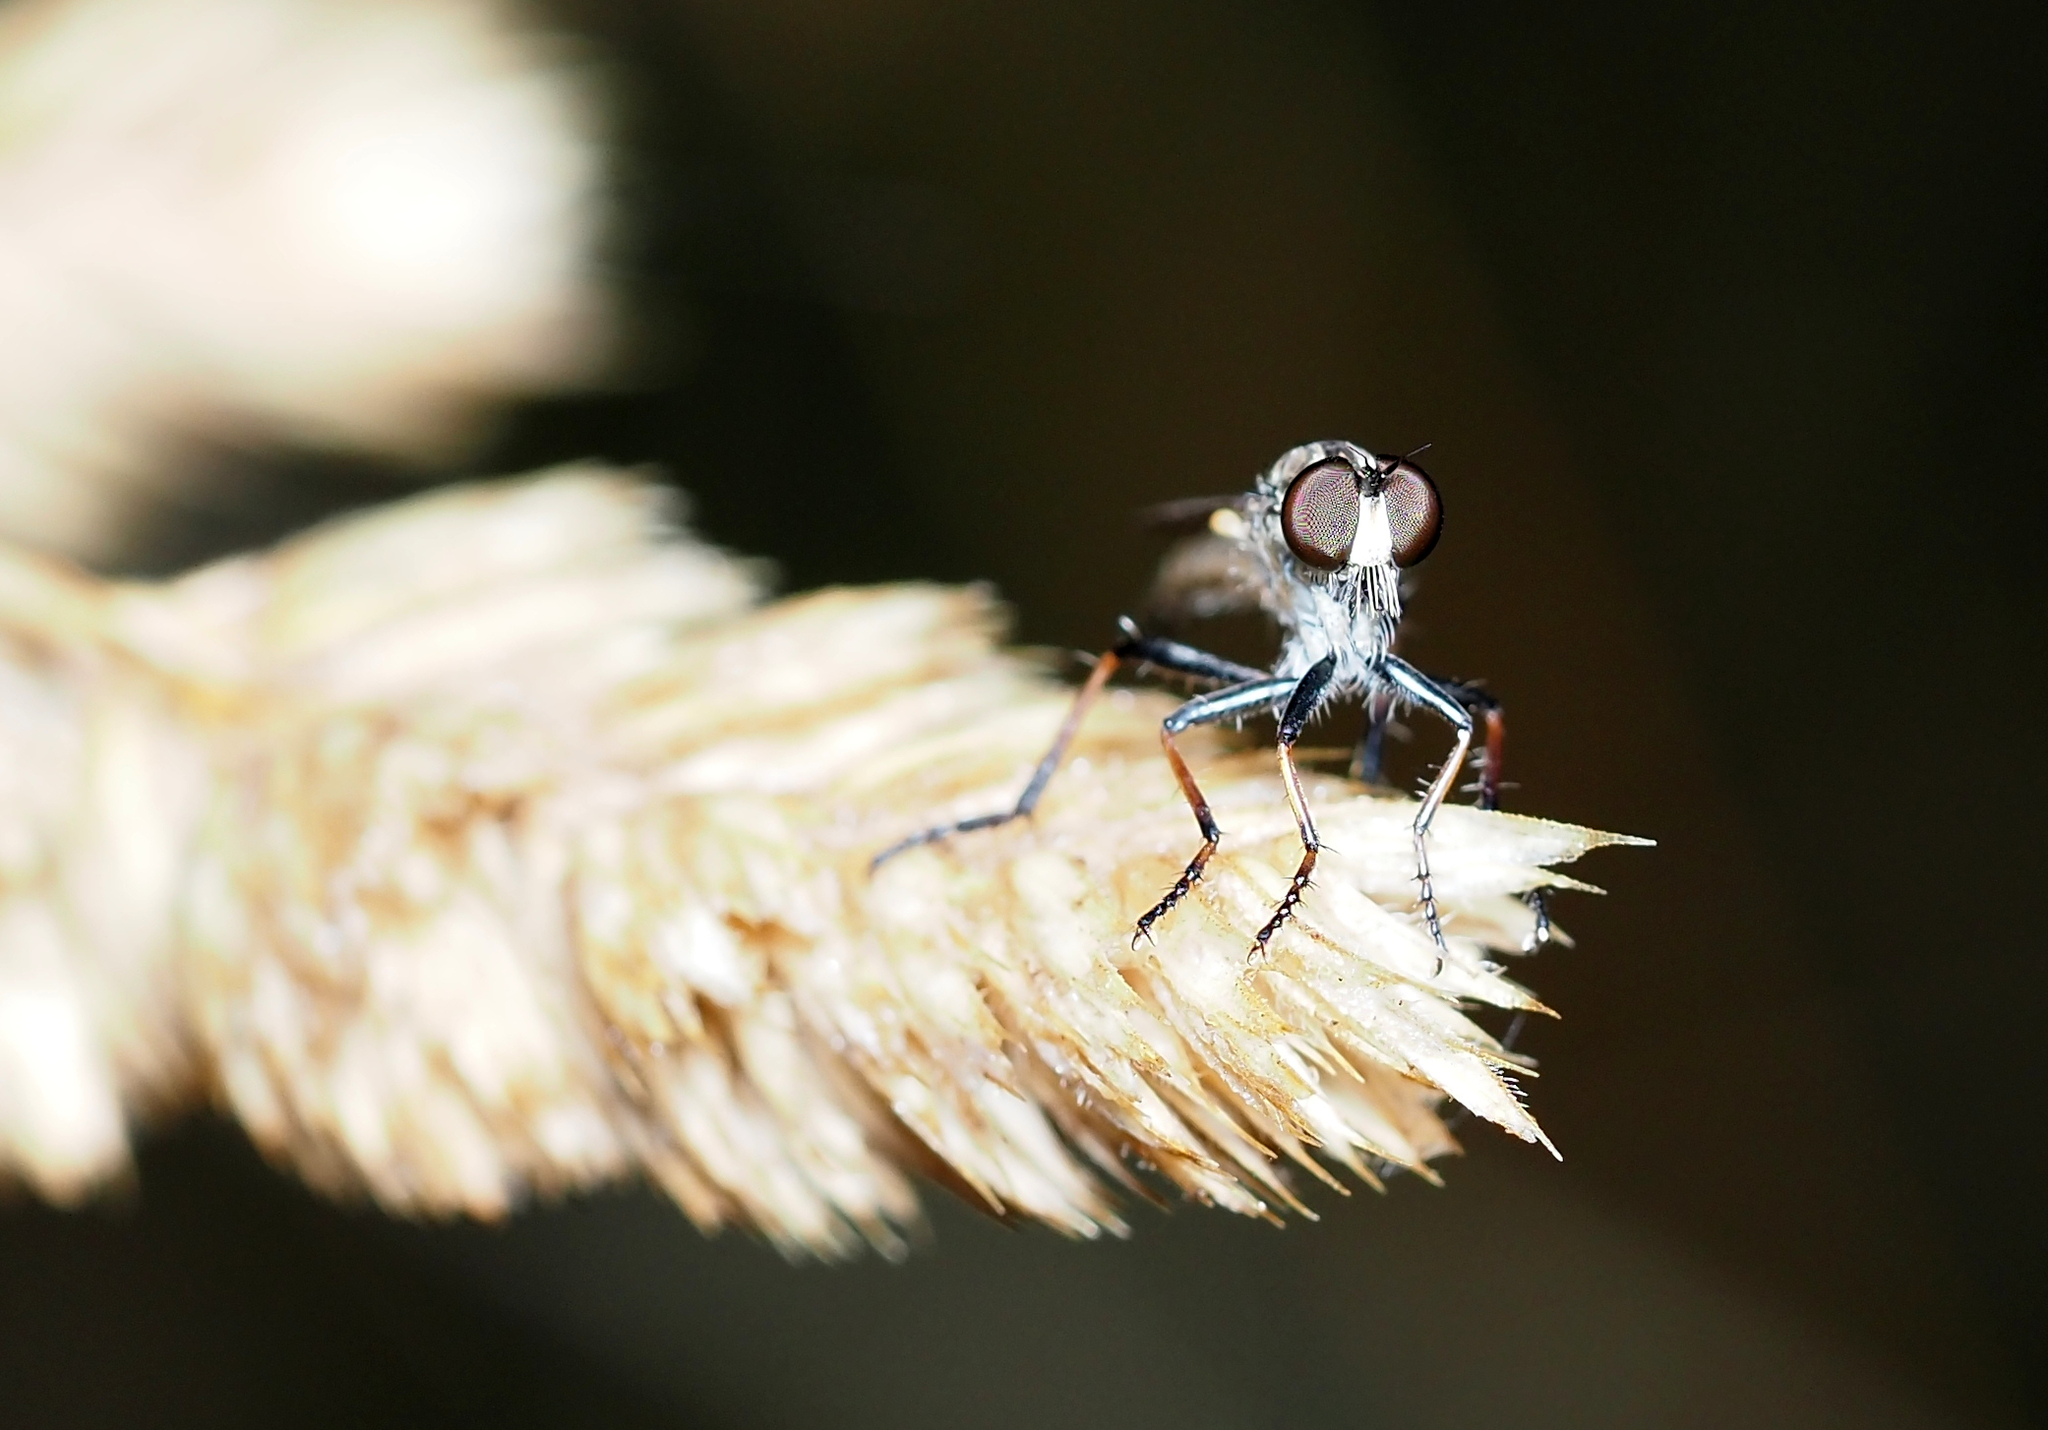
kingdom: Animalia
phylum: Arthropoda
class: Insecta
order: Diptera
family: Asilidae
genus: Cerdistus
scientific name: Cerdistus
